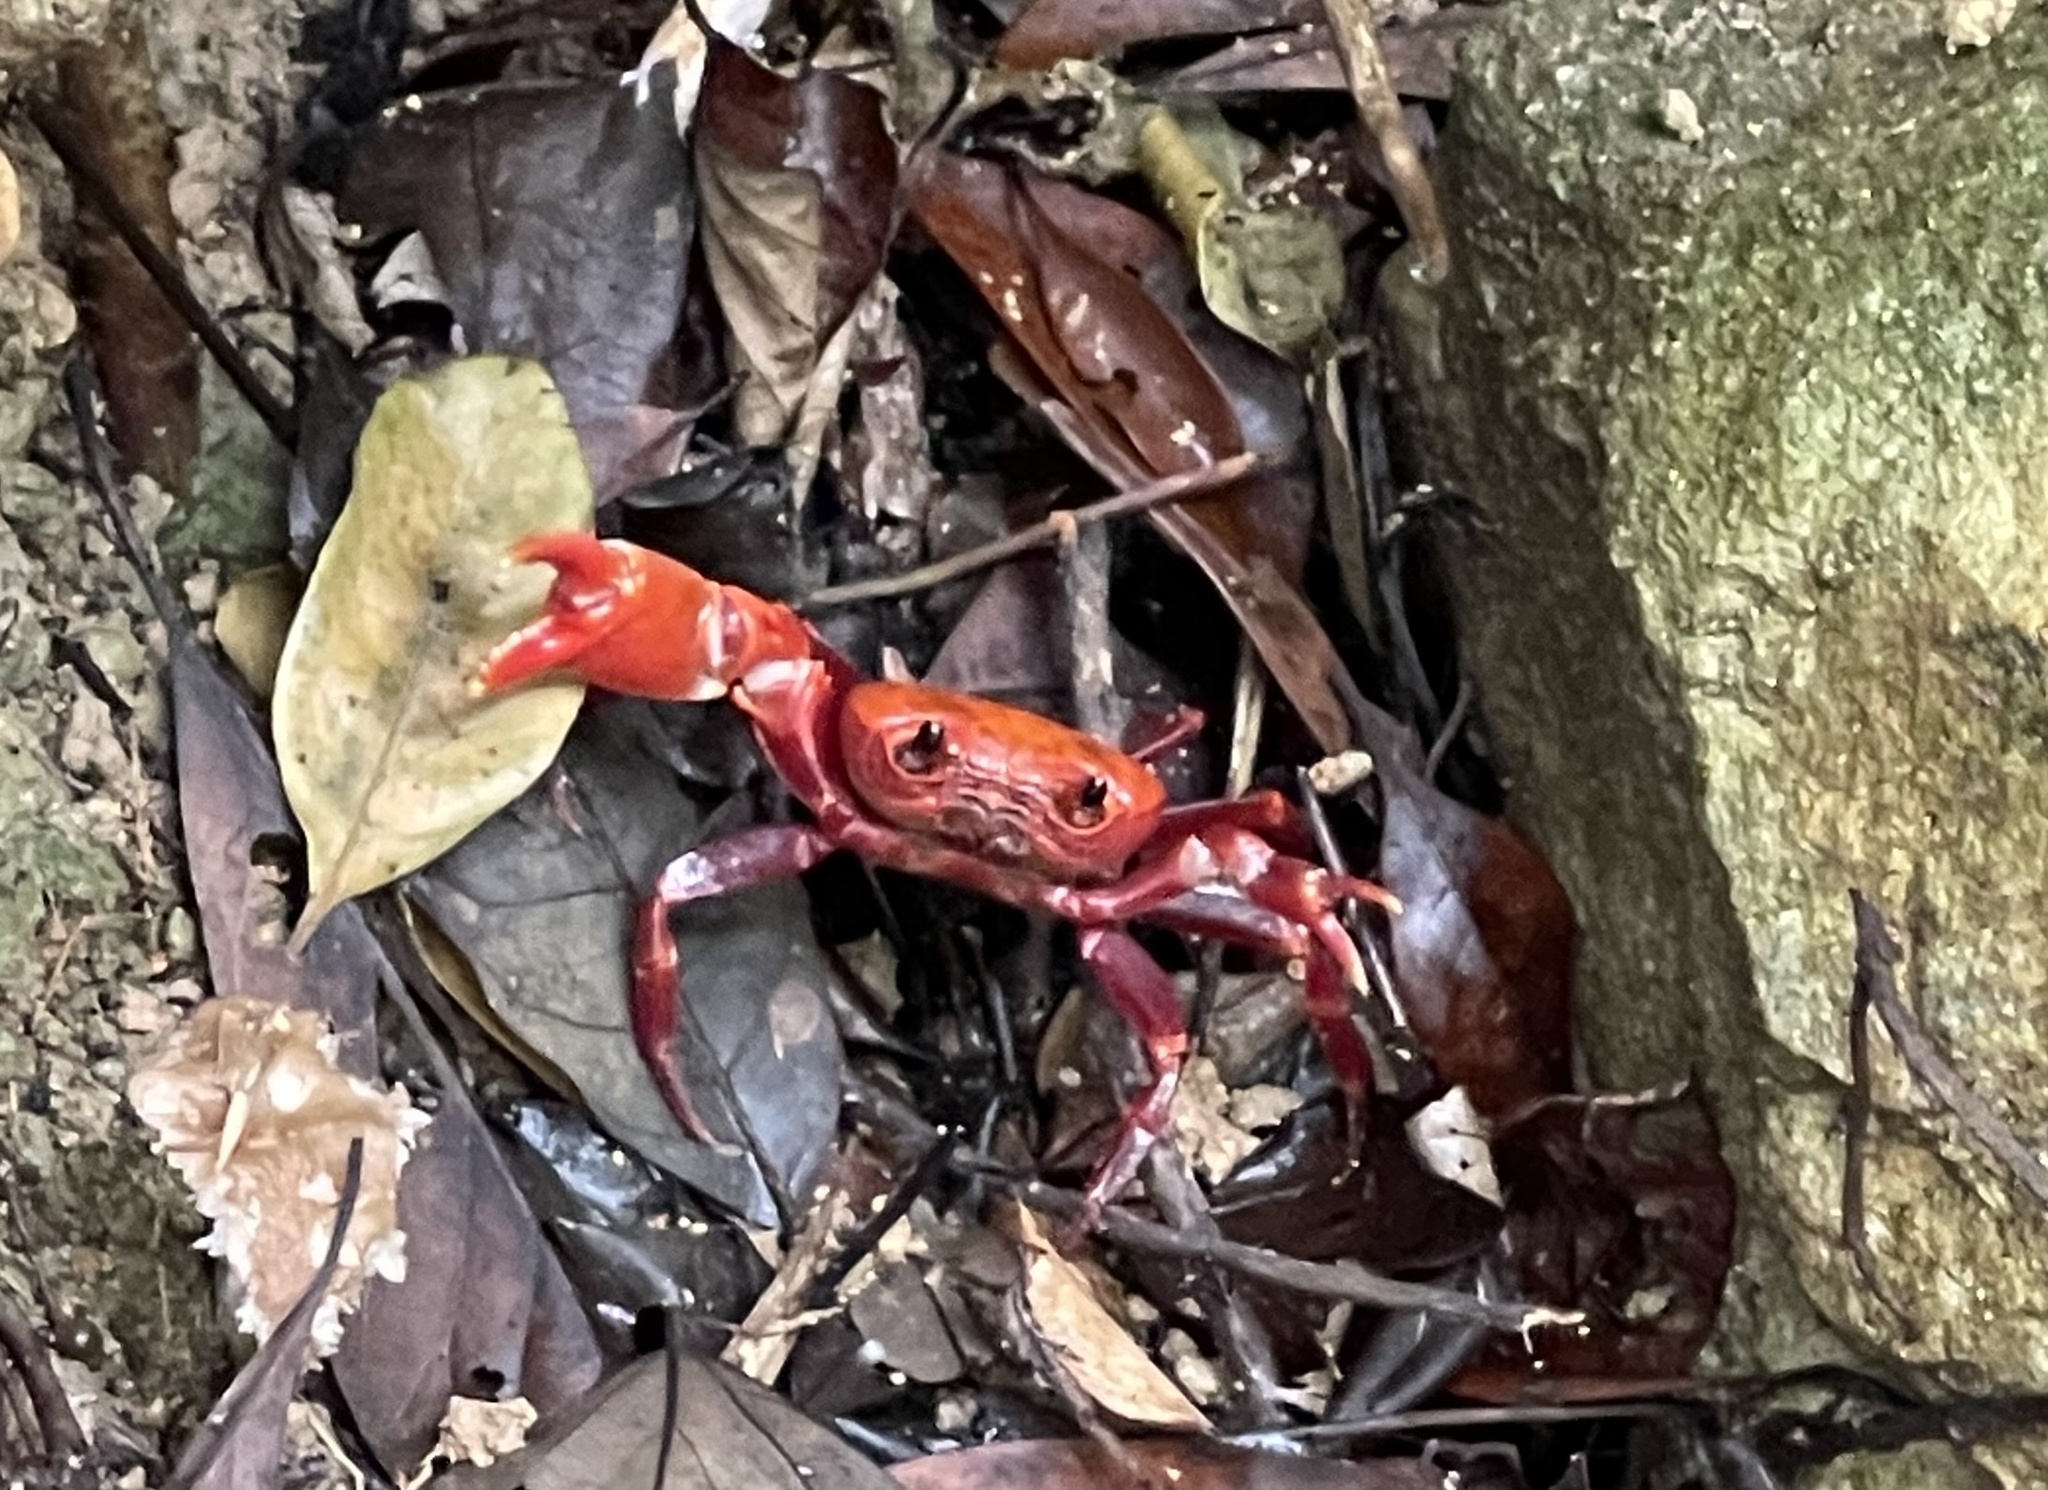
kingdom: Animalia
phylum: Arthropoda
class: Malacostraca
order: Decapoda
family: Potamidae
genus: Nanhaipotamon
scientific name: Nanhaipotamon hongkongense
